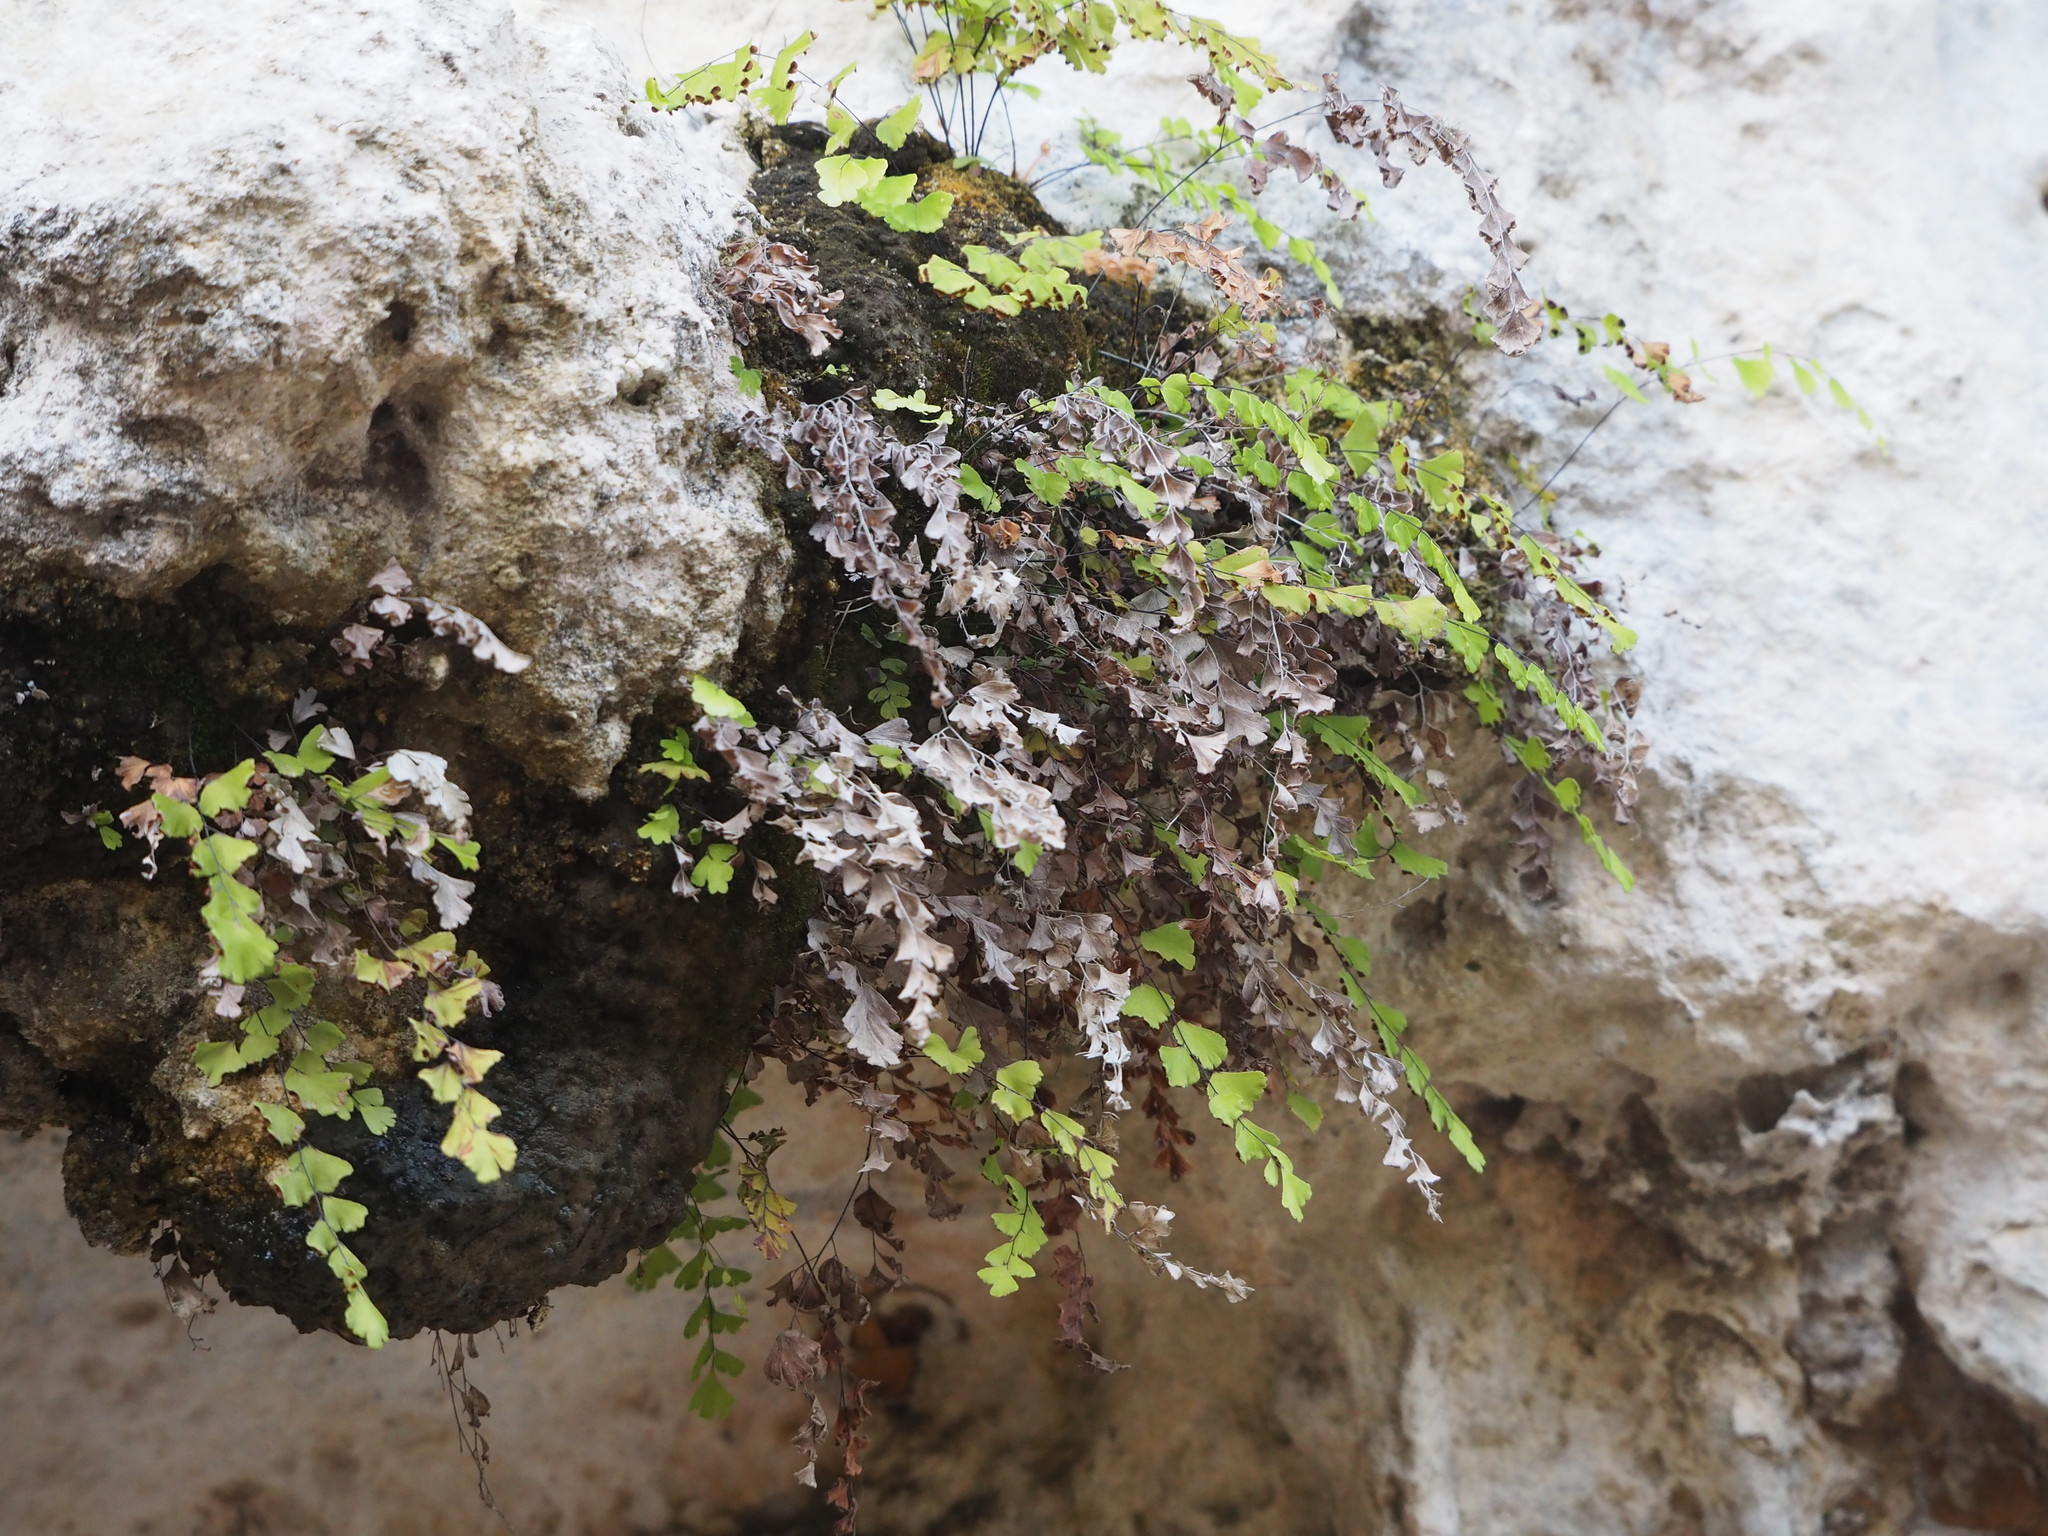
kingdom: Plantae
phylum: Tracheophyta
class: Polypodiopsida
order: Polypodiales
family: Pteridaceae
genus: Adiantum
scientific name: Adiantum capillus-veneris
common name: Maidenhair fern
